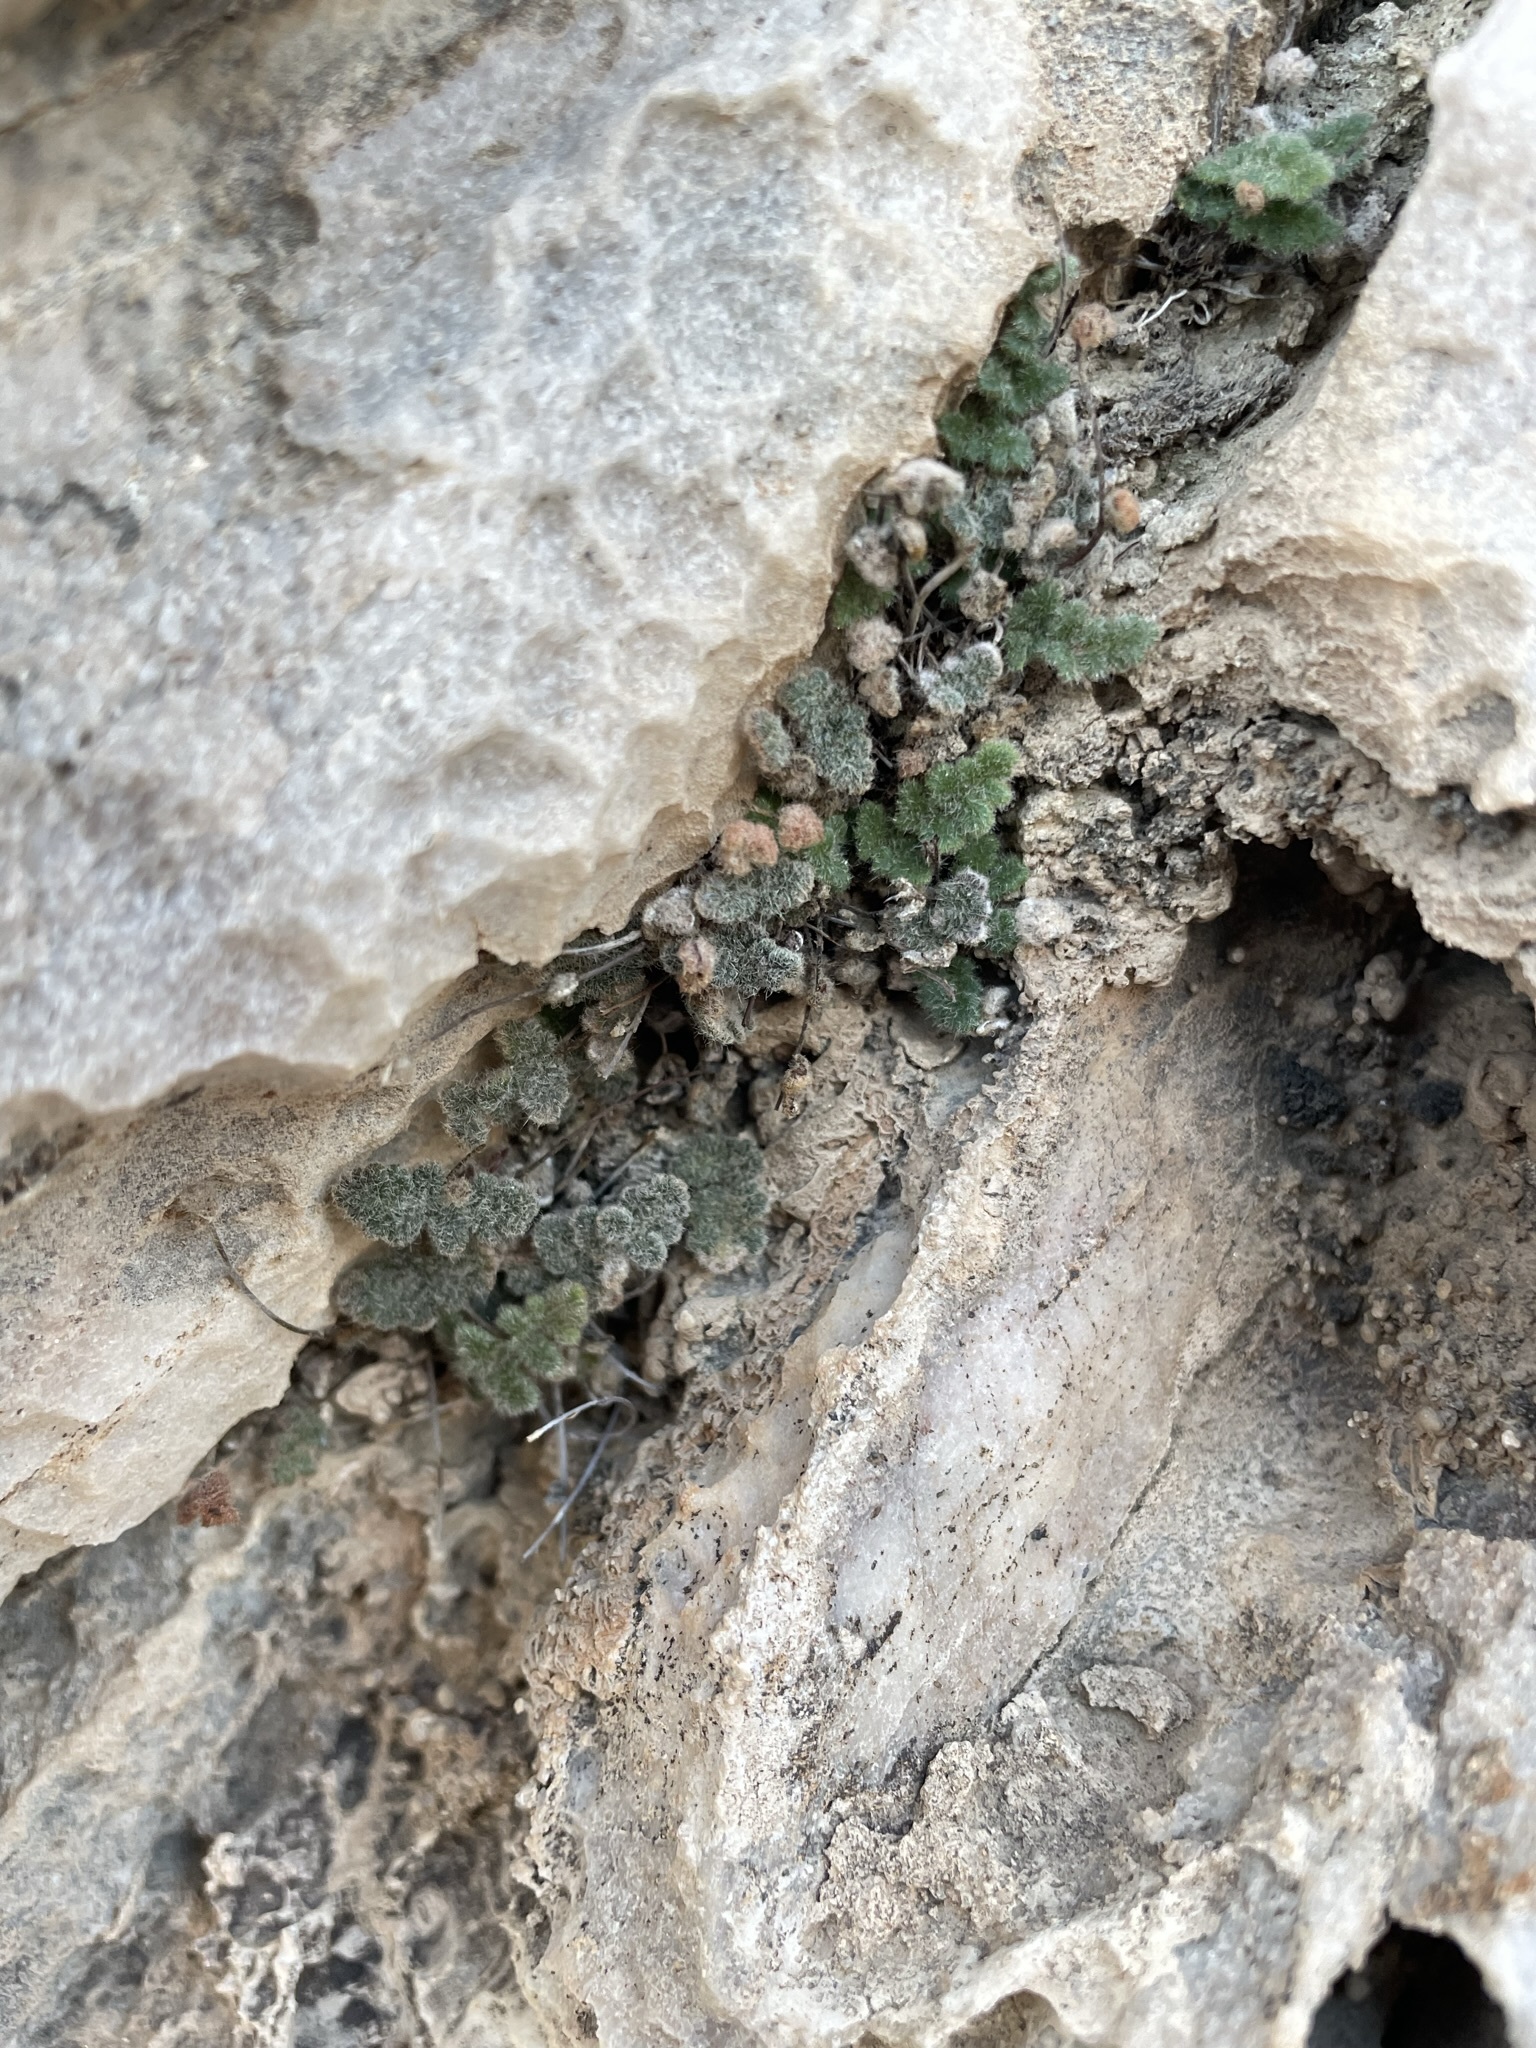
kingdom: Plantae
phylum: Tracheophyta
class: Polypodiopsida
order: Polypodiales
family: Pteridaceae
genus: Myriopteris
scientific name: Myriopteris parryi
